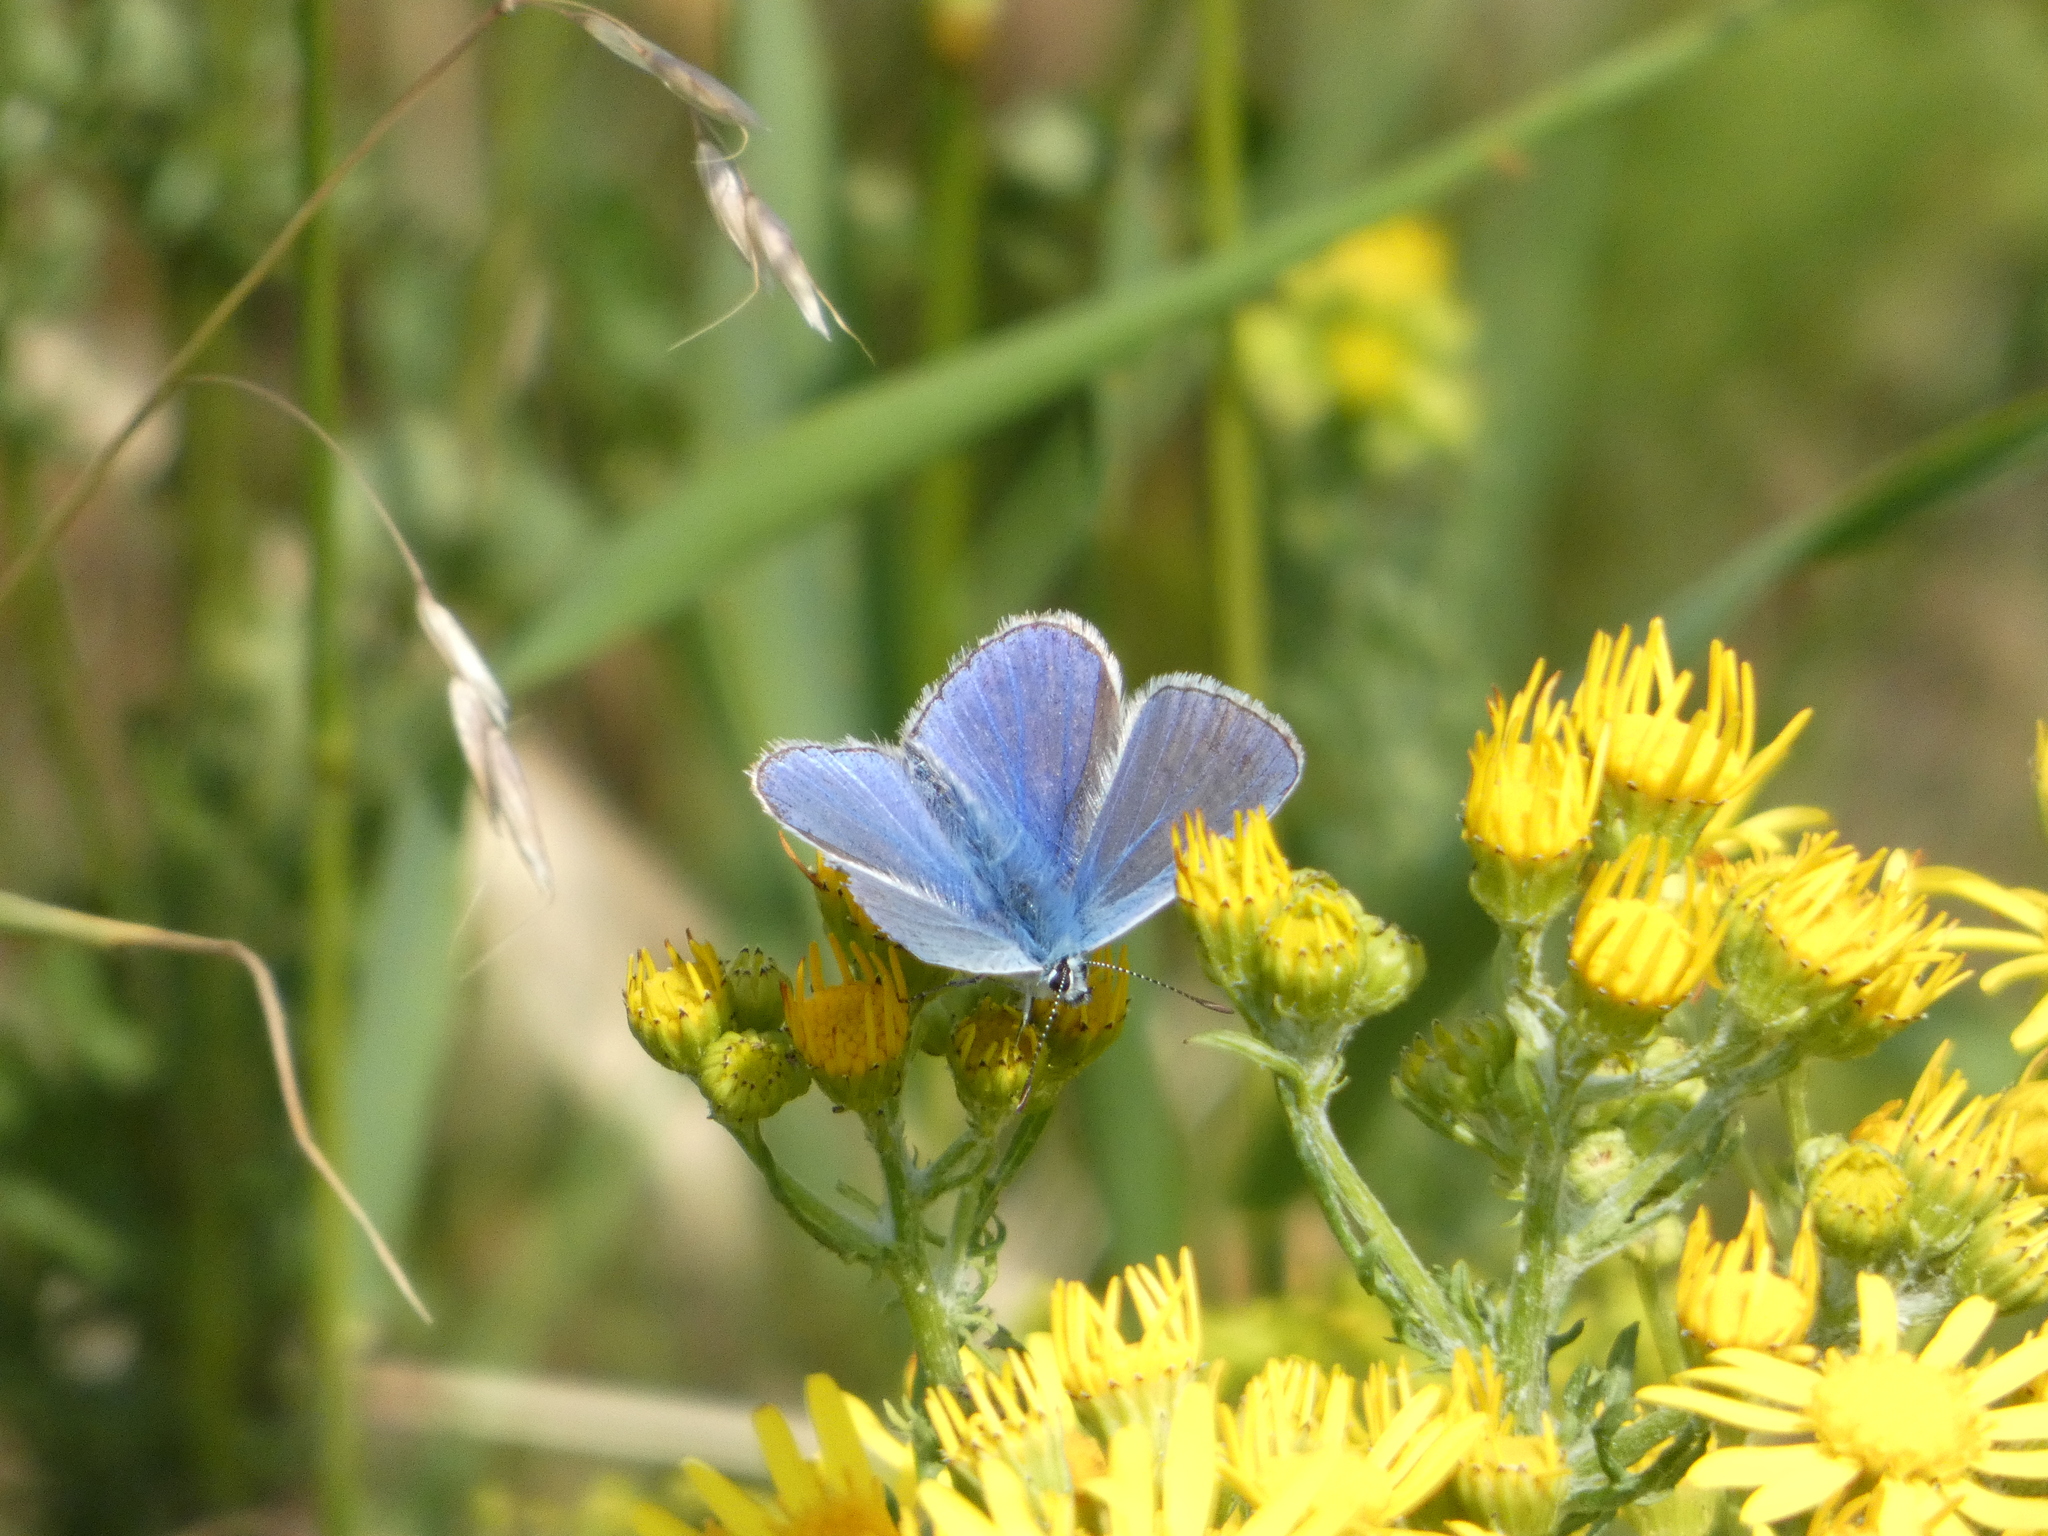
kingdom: Animalia
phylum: Arthropoda
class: Insecta
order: Lepidoptera
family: Lycaenidae
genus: Polyommatus
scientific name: Polyommatus icarus
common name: Common blue
